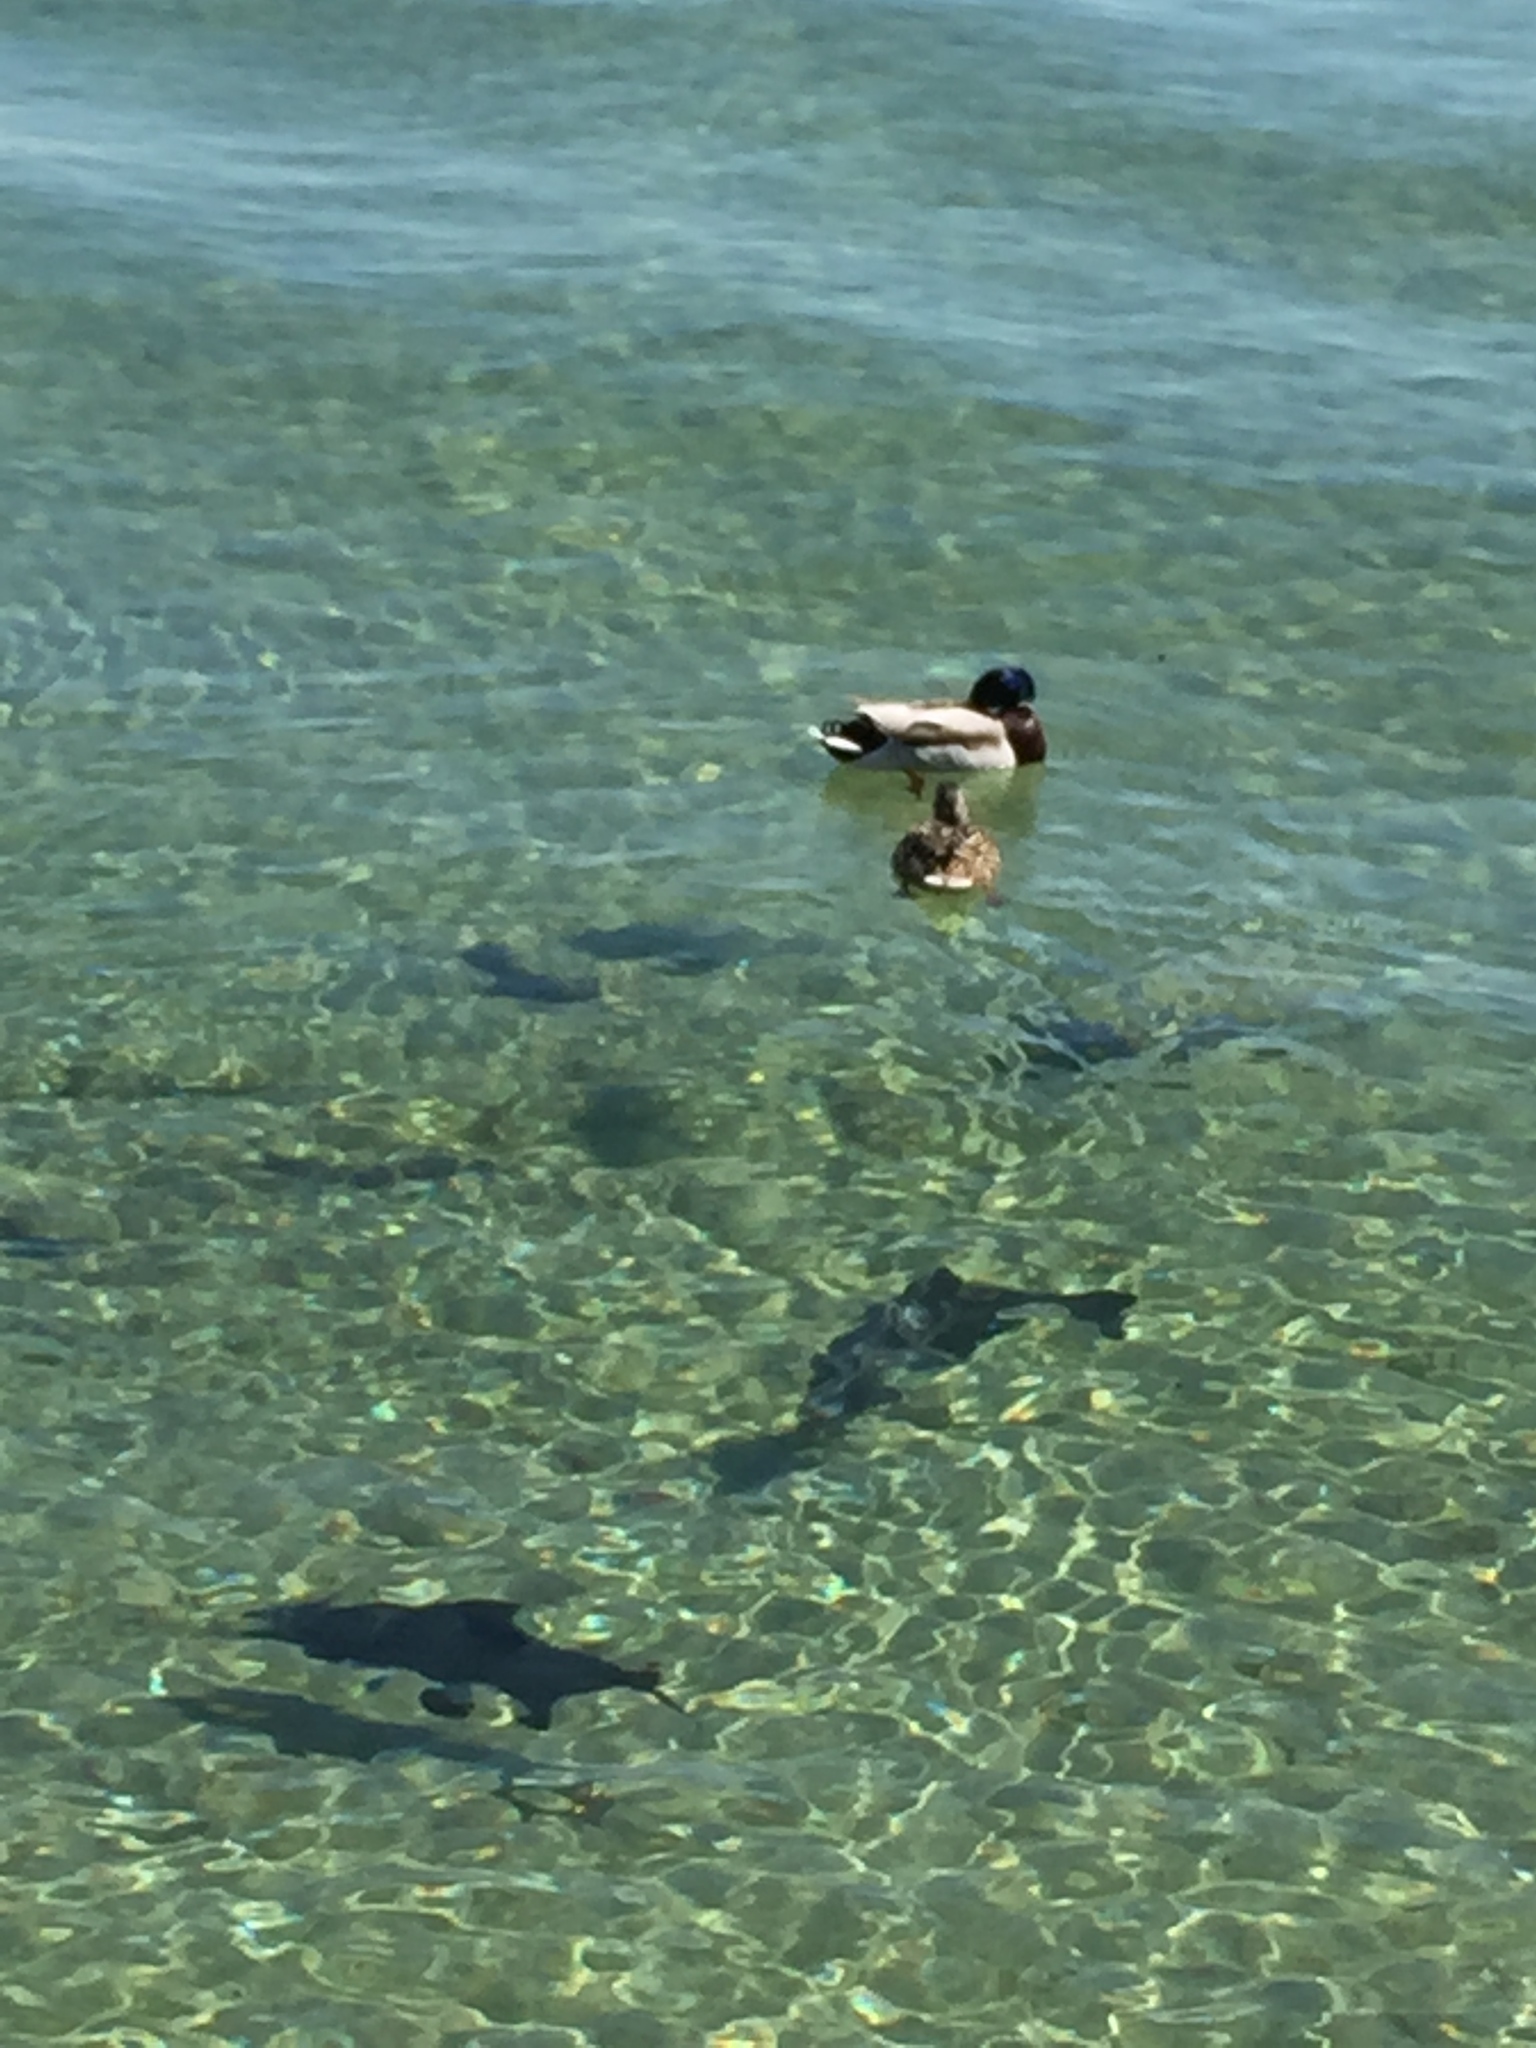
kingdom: Animalia
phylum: Chordata
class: Aves
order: Anseriformes
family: Anatidae
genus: Anas
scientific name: Anas platyrhynchos
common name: Mallard
